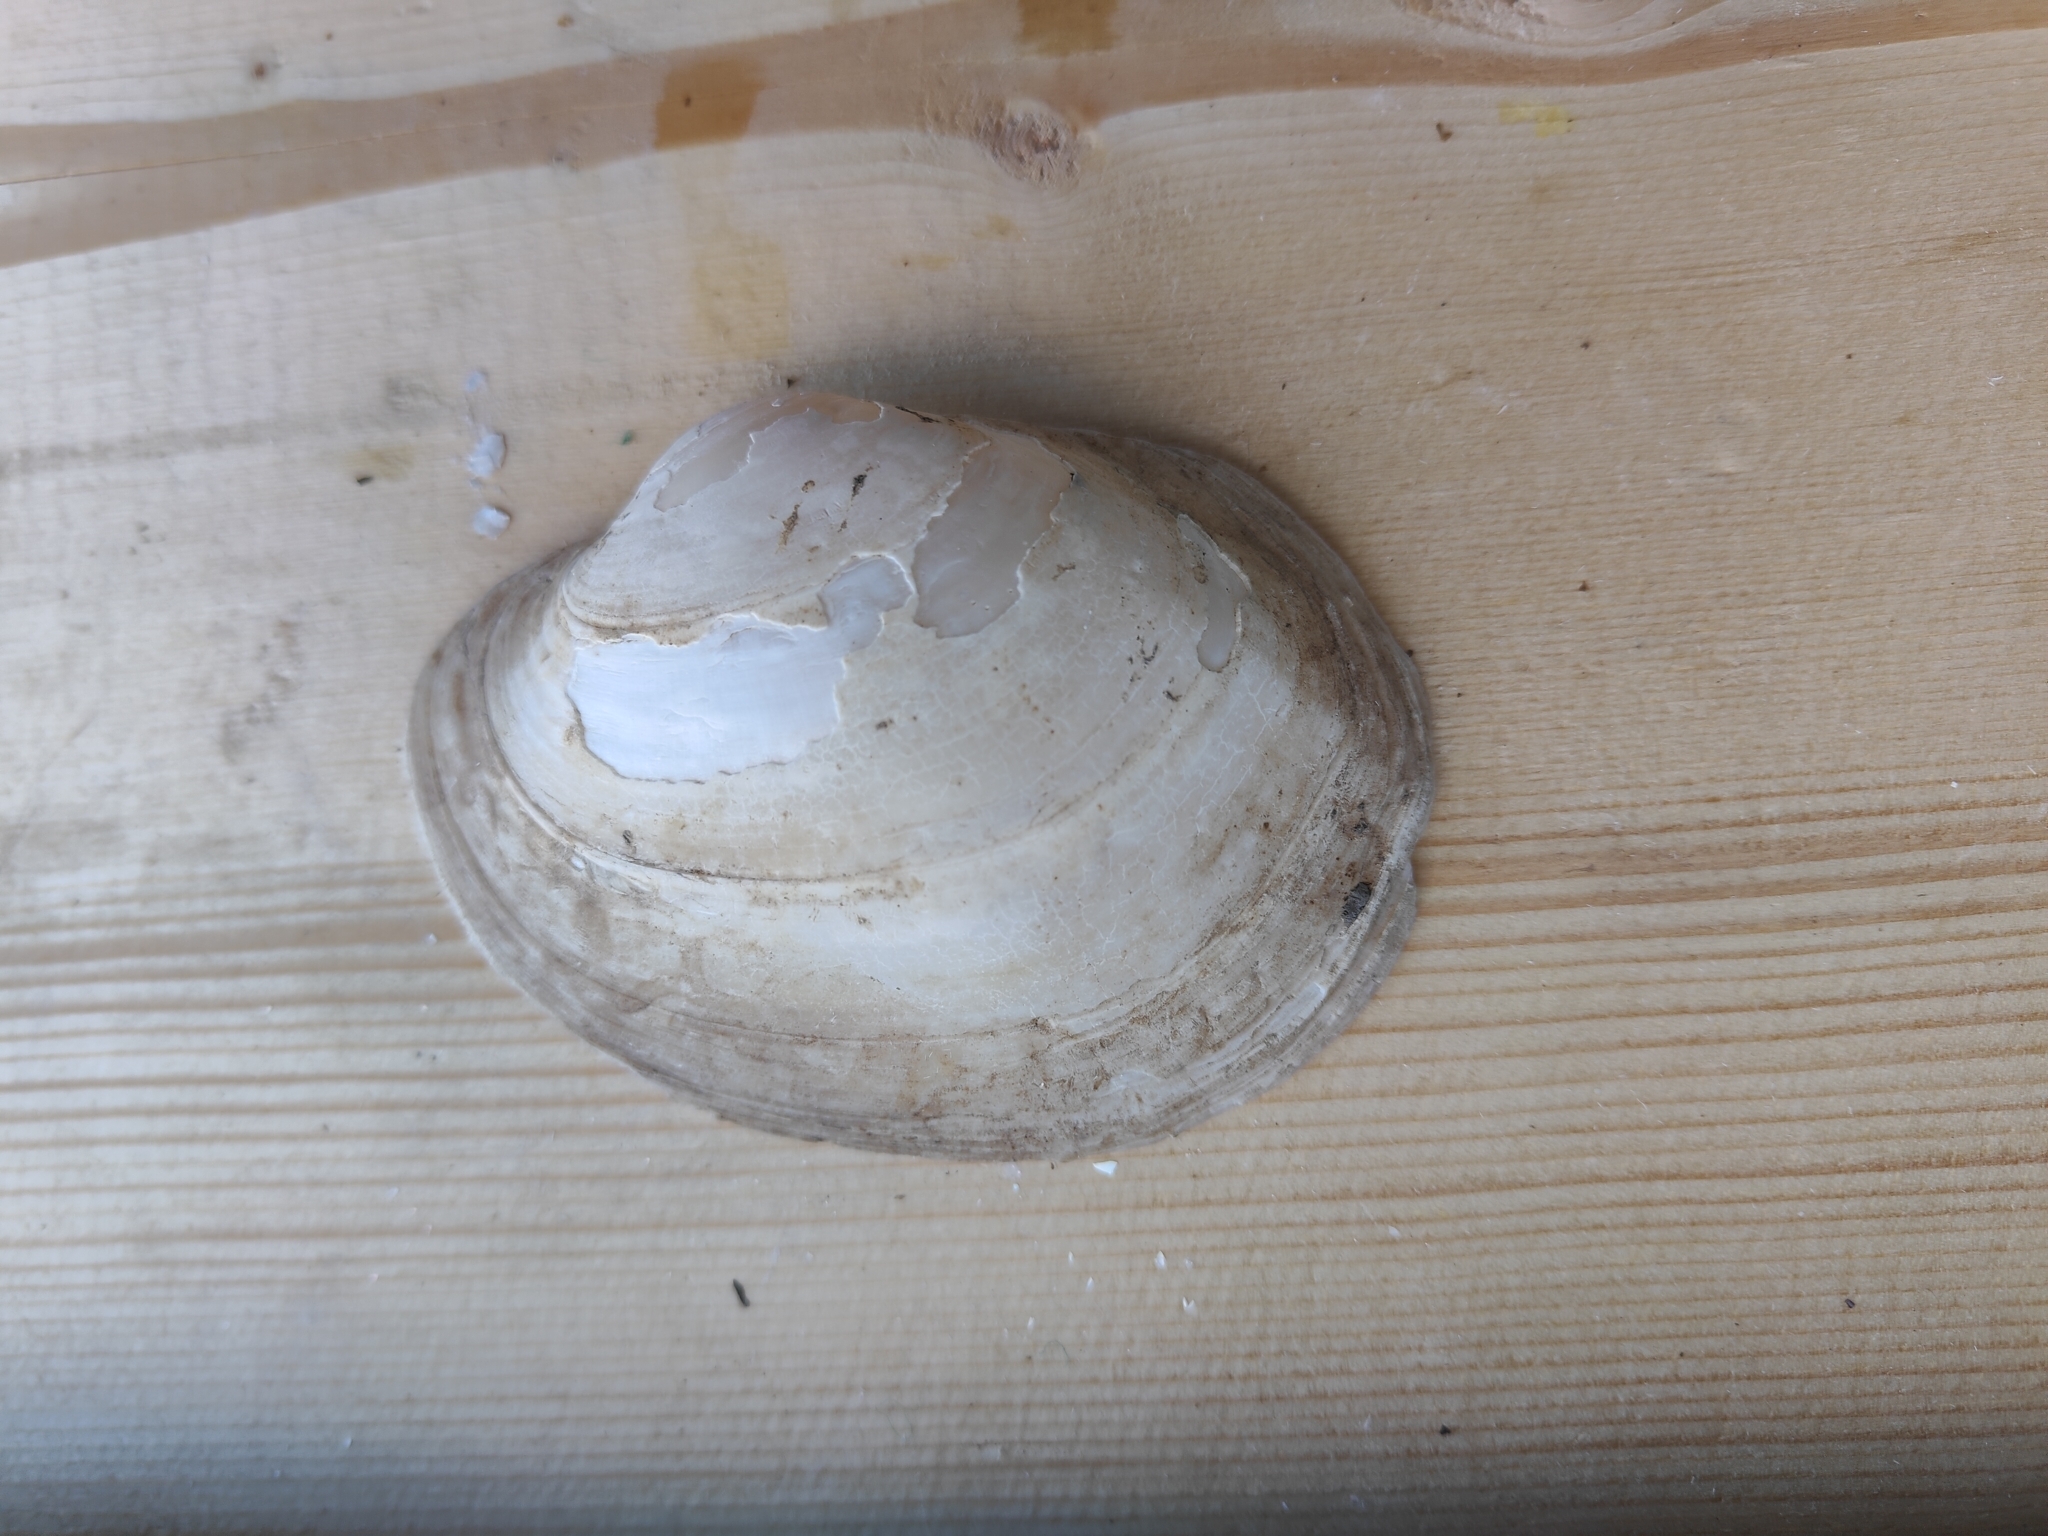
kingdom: Animalia
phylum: Mollusca
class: Bivalvia
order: Unionida
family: Unionidae
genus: Lampsilis
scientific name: Lampsilis cardium
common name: Plain pocketbook
